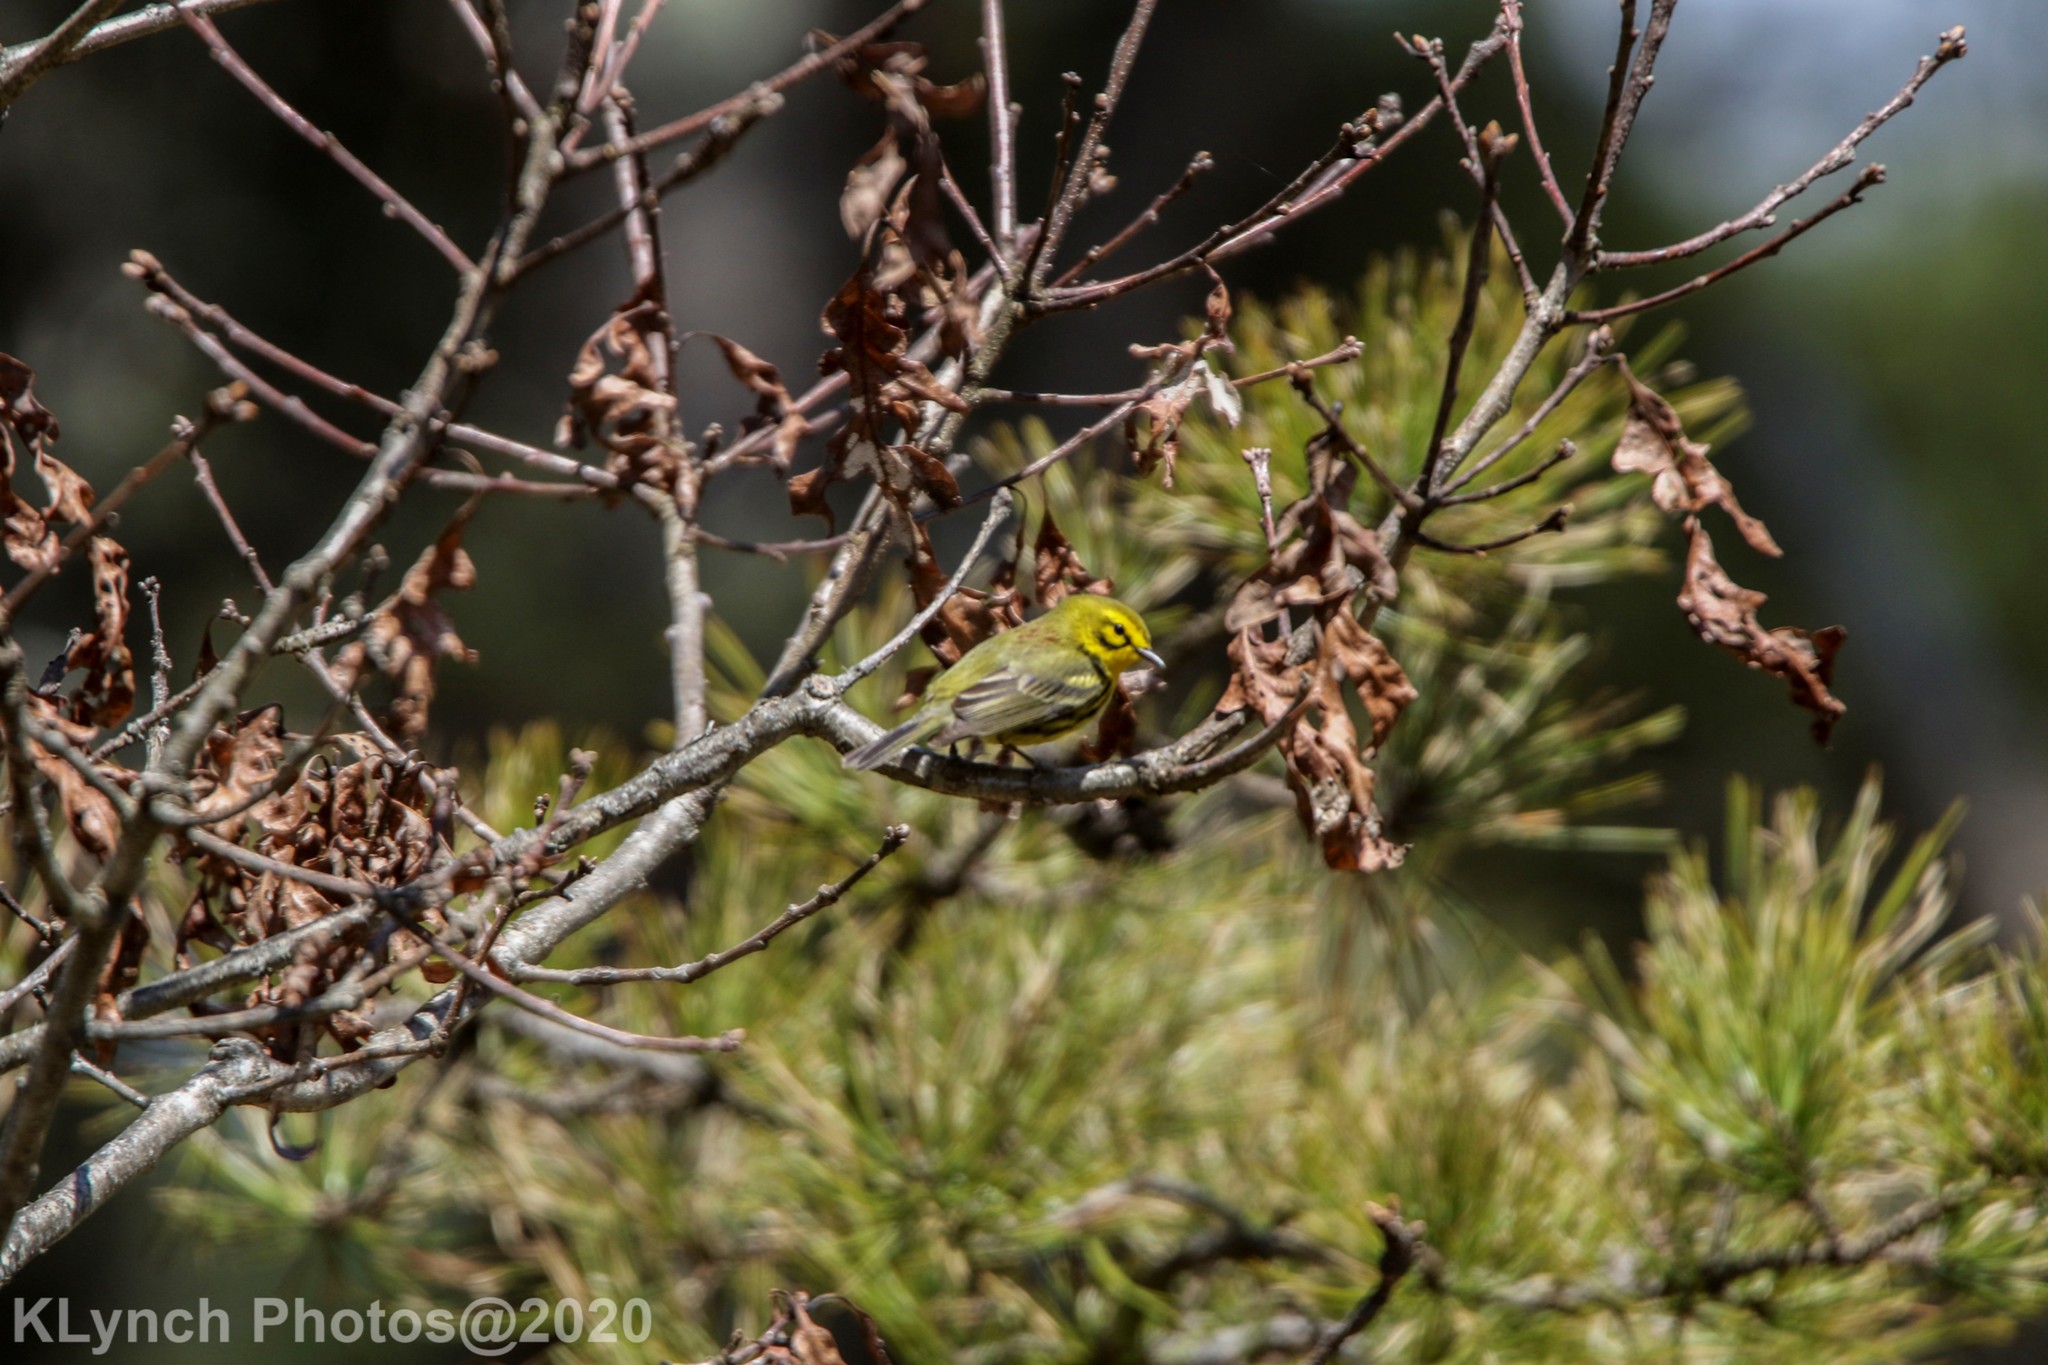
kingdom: Animalia
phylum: Chordata
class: Aves
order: Passeriformes
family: Parulidae
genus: Setophaga
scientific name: Setophaga discolor
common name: Prairie warbler
